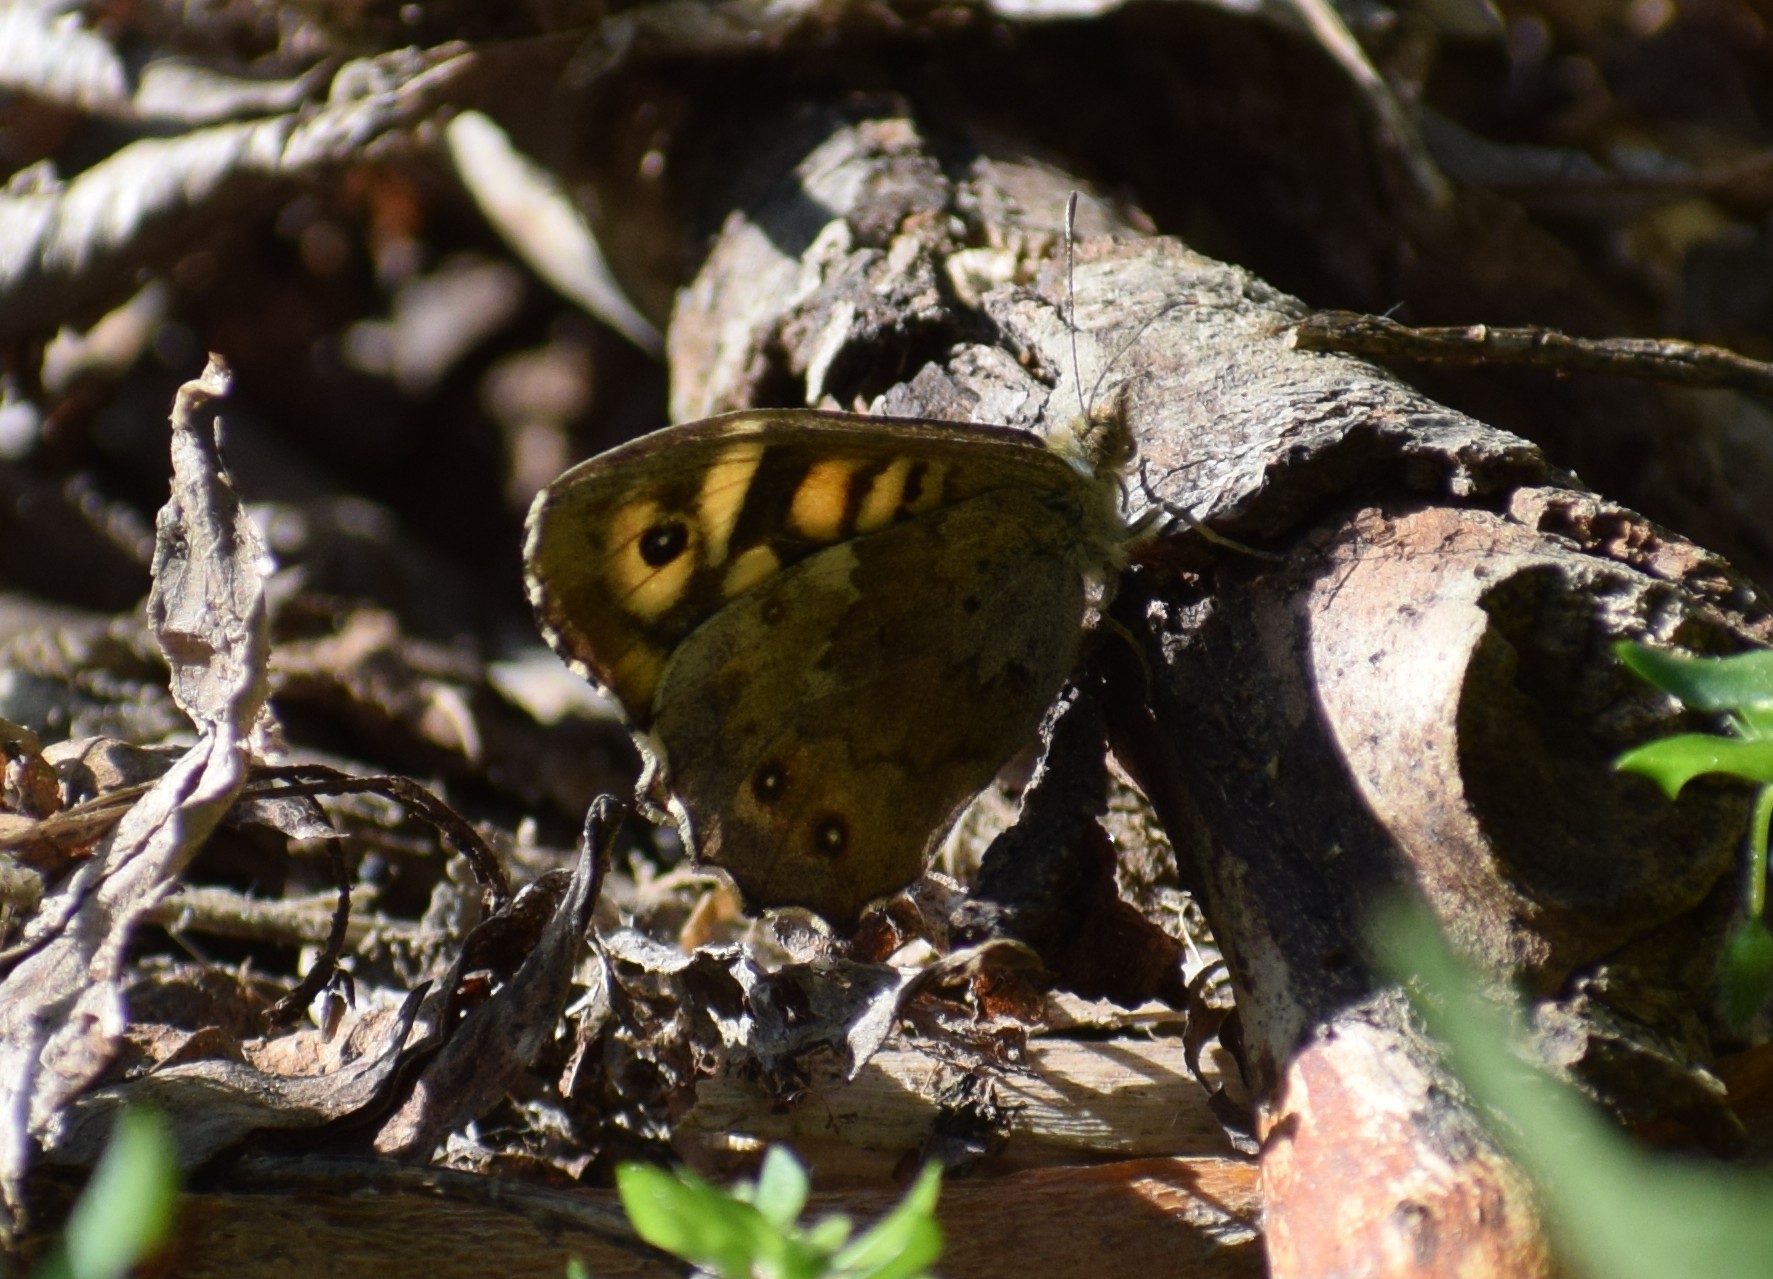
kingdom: Animalia
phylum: Arthropoda
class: Insecta
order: Lepidoptera
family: Nymphalidae
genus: Pararge
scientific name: Pararge aegeria
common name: Speckled wood
